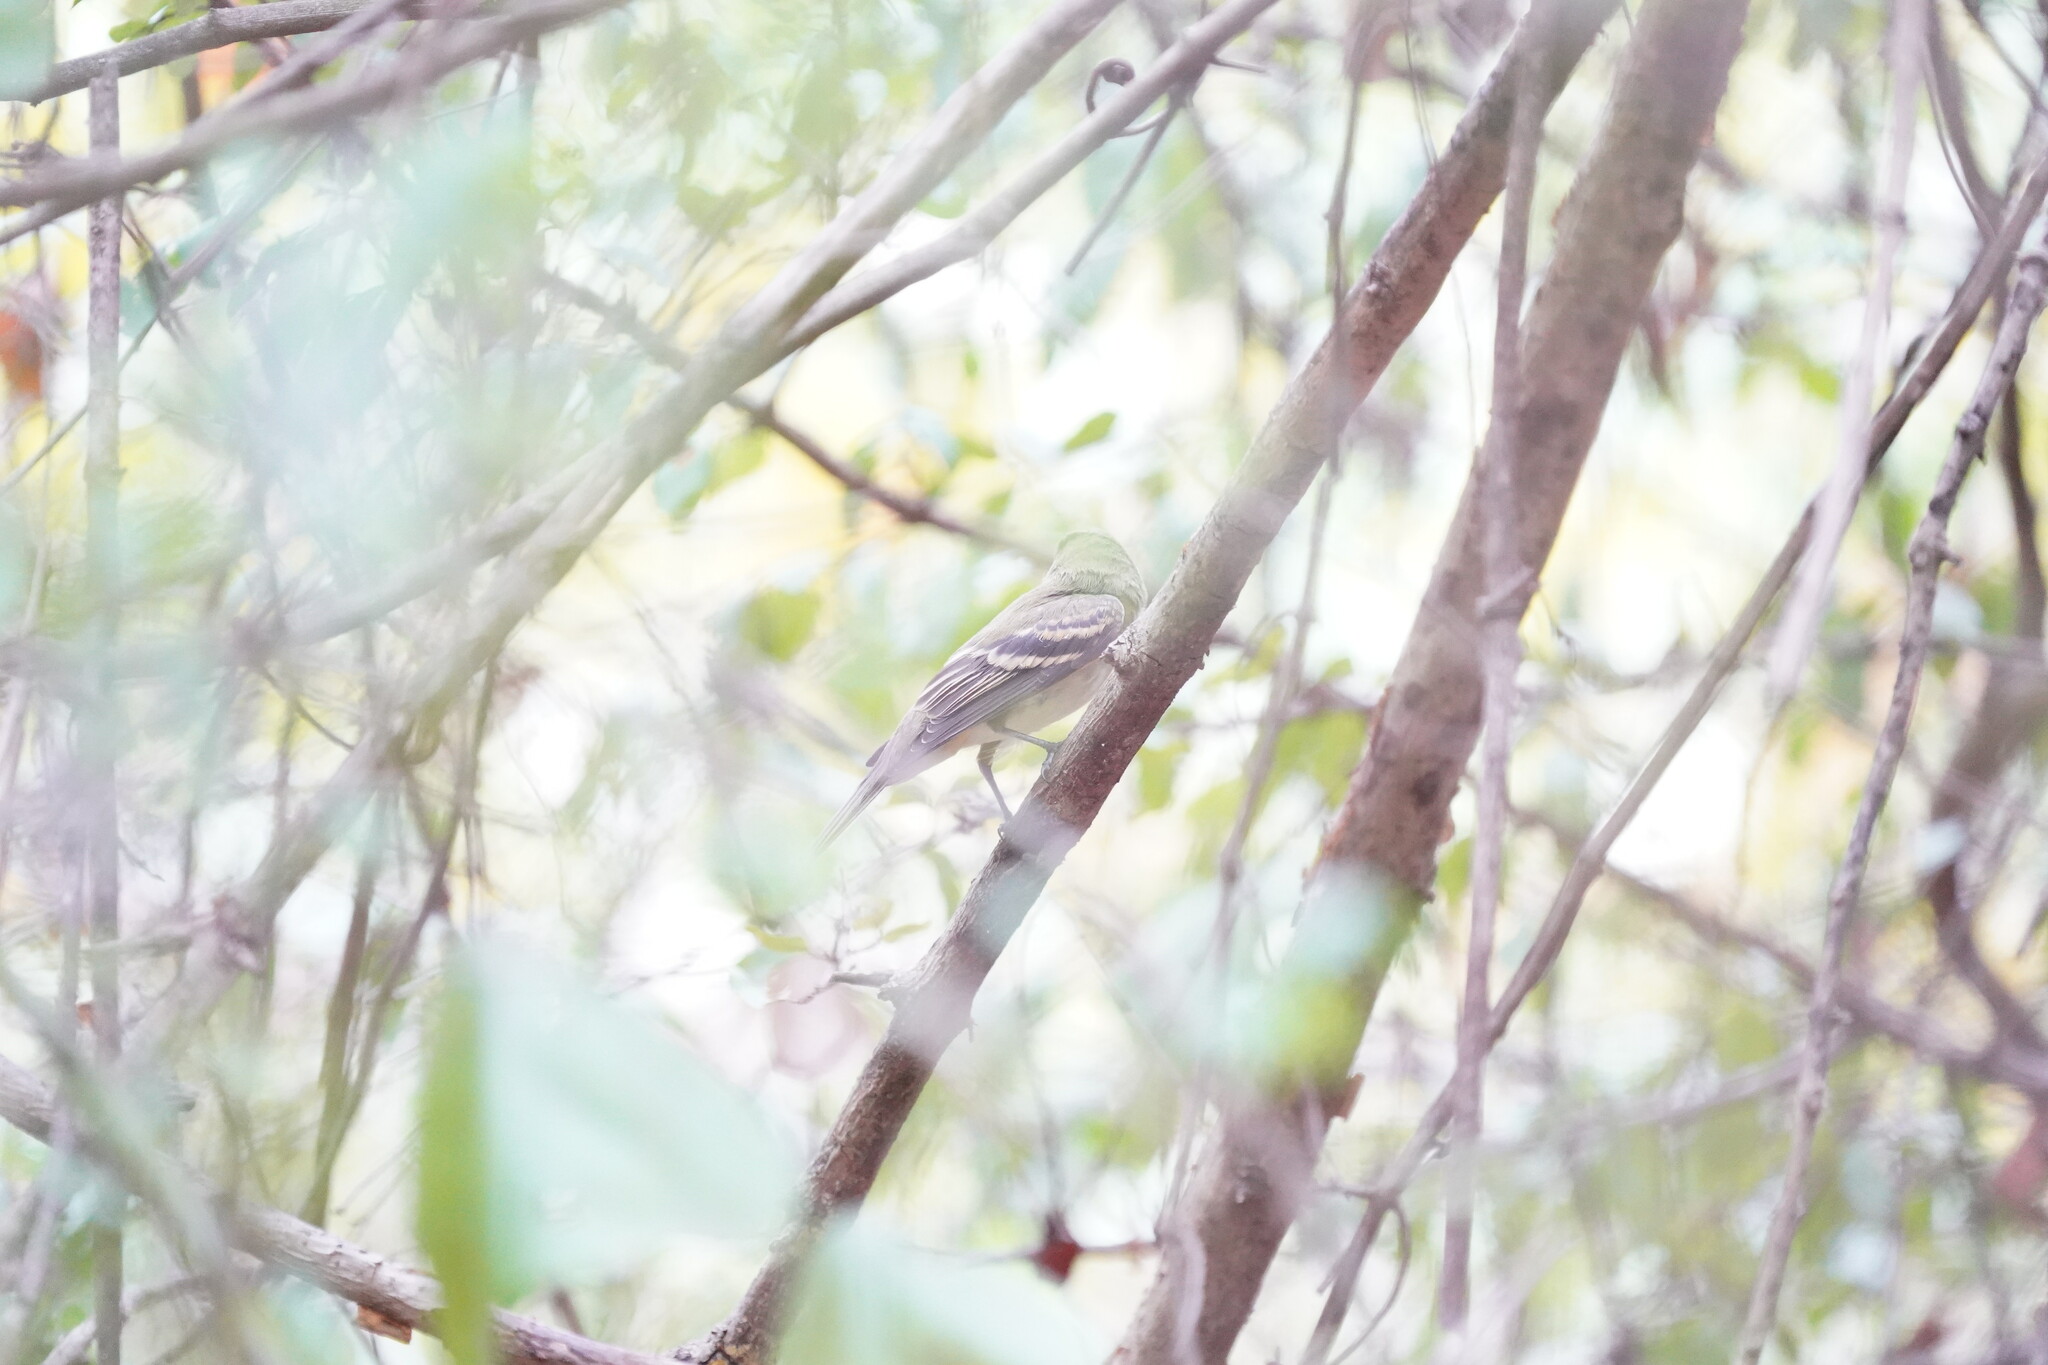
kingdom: Animalia
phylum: Chordata
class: Aves
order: Passeriformes
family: Tyrannidae
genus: Empidonax
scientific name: Empidonax virescens
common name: Acadian flycatcher
